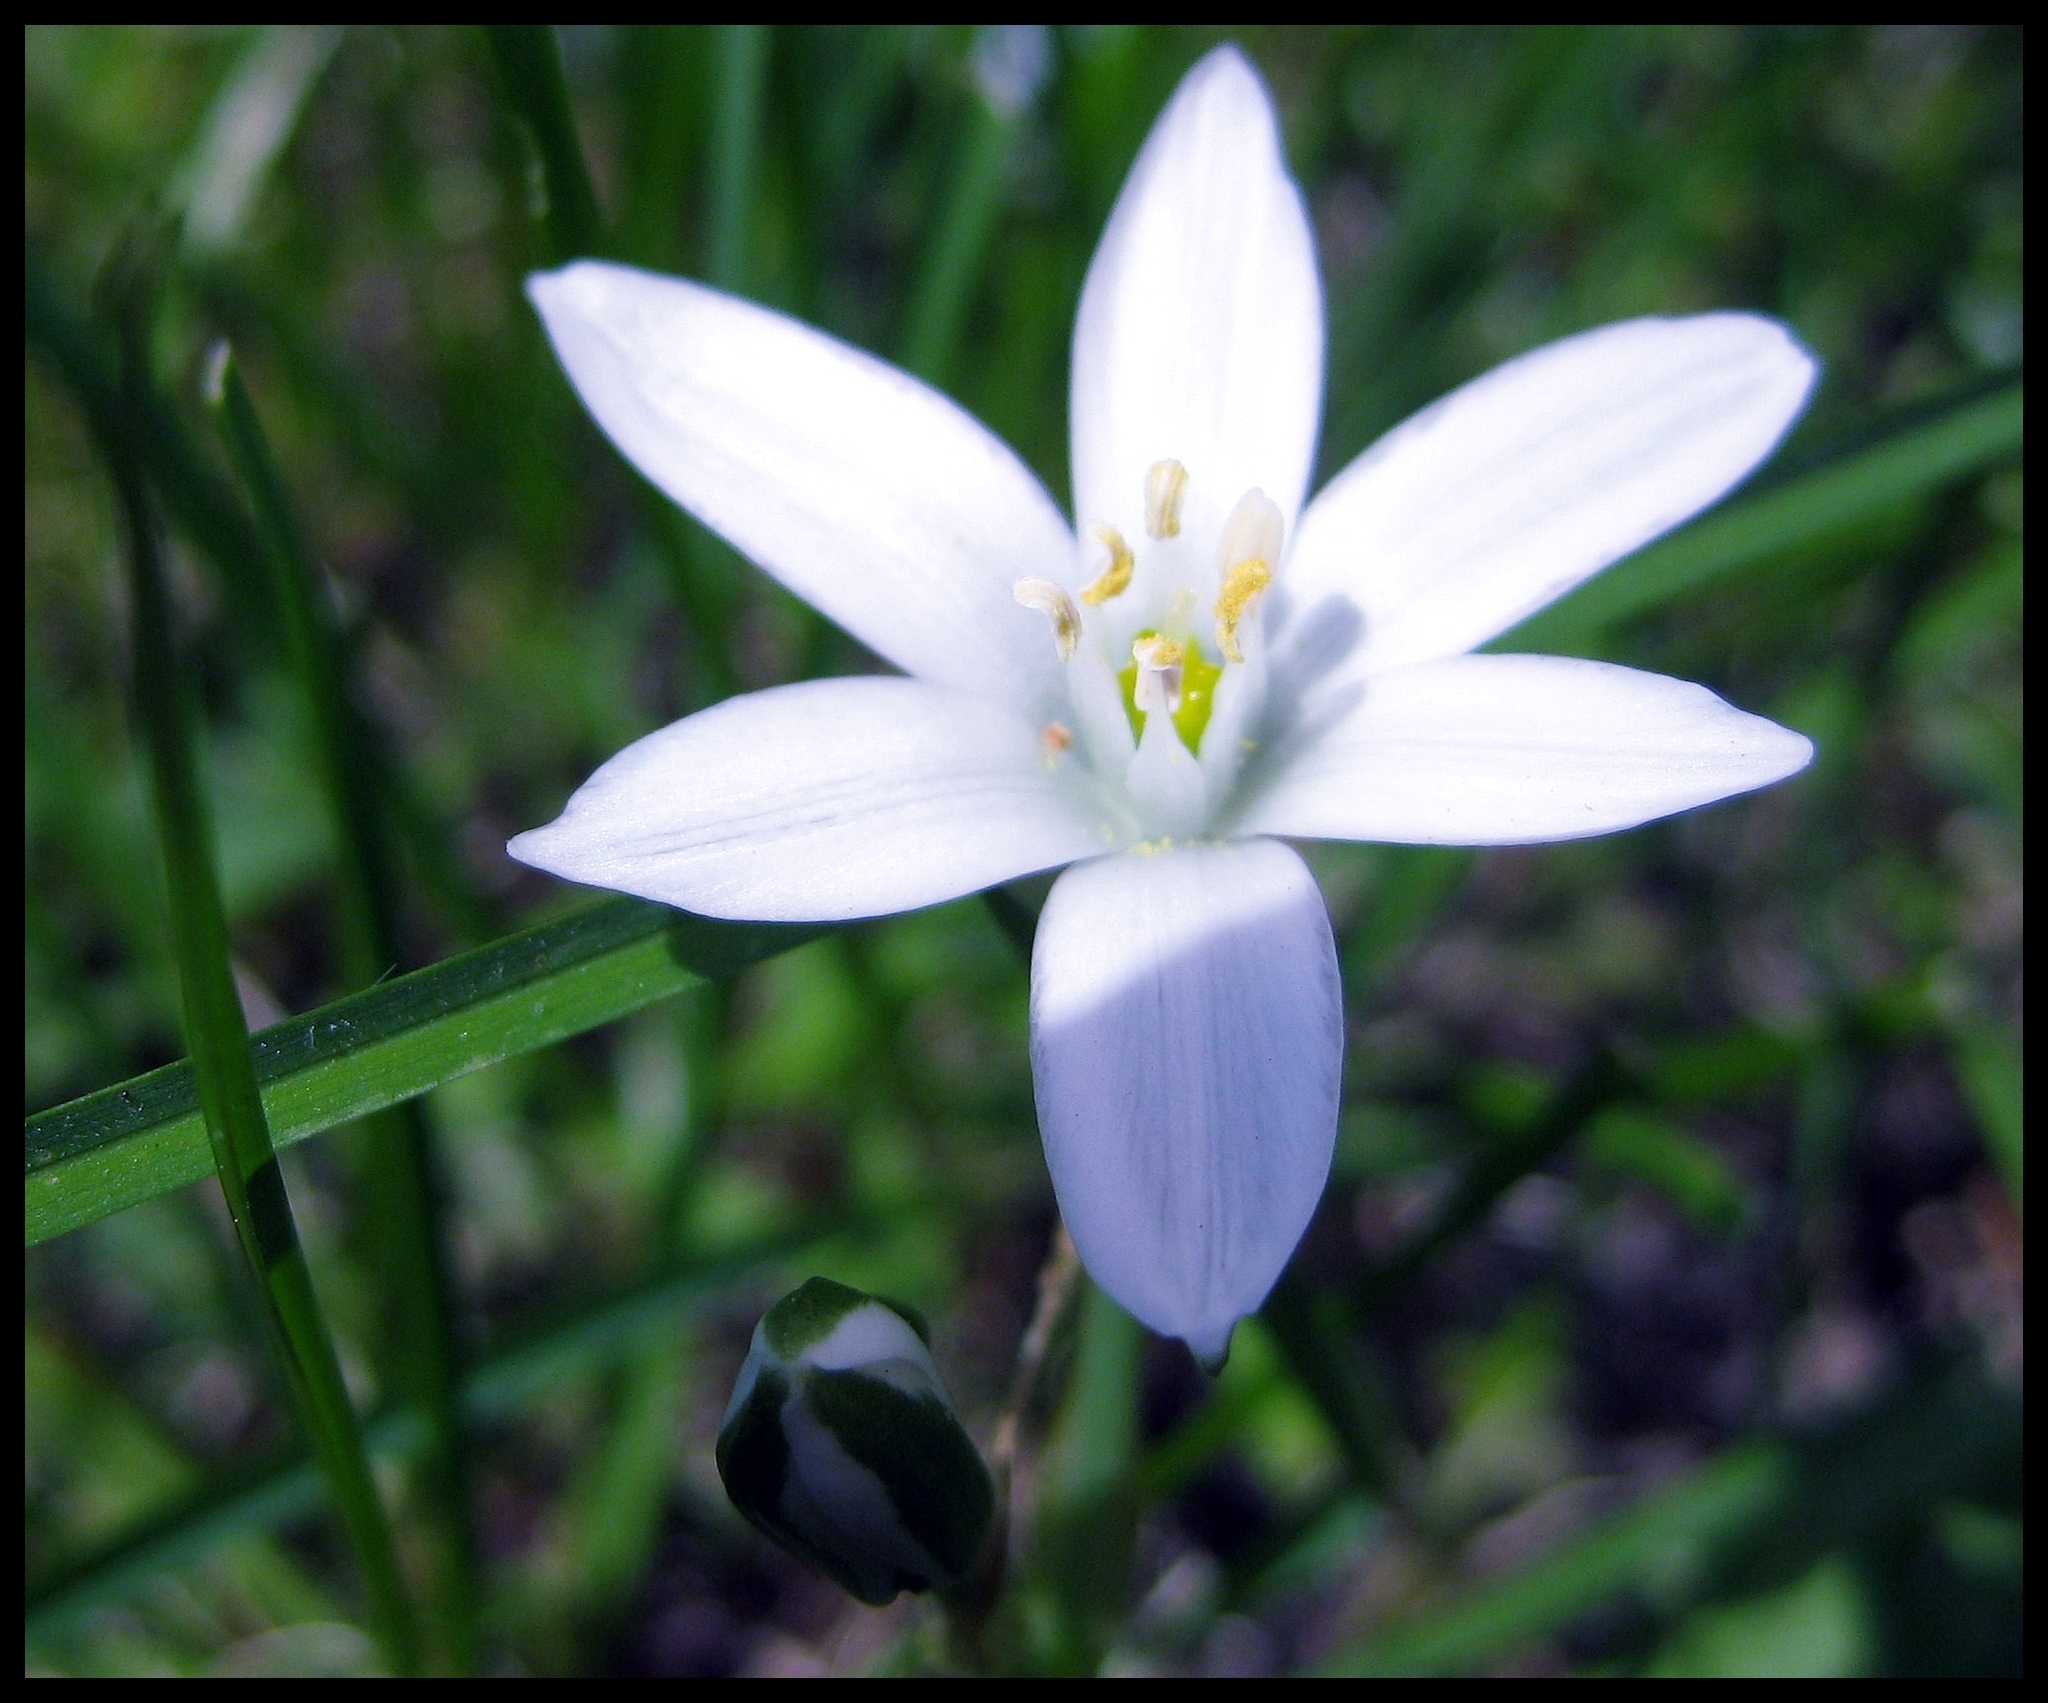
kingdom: Plantae
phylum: Tracheophyta
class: Liliopsida
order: Asparagales
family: Asparagaceae
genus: Ornithogalum
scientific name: Ornithogalum umbellatum
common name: Garden star-of-bethlehem
